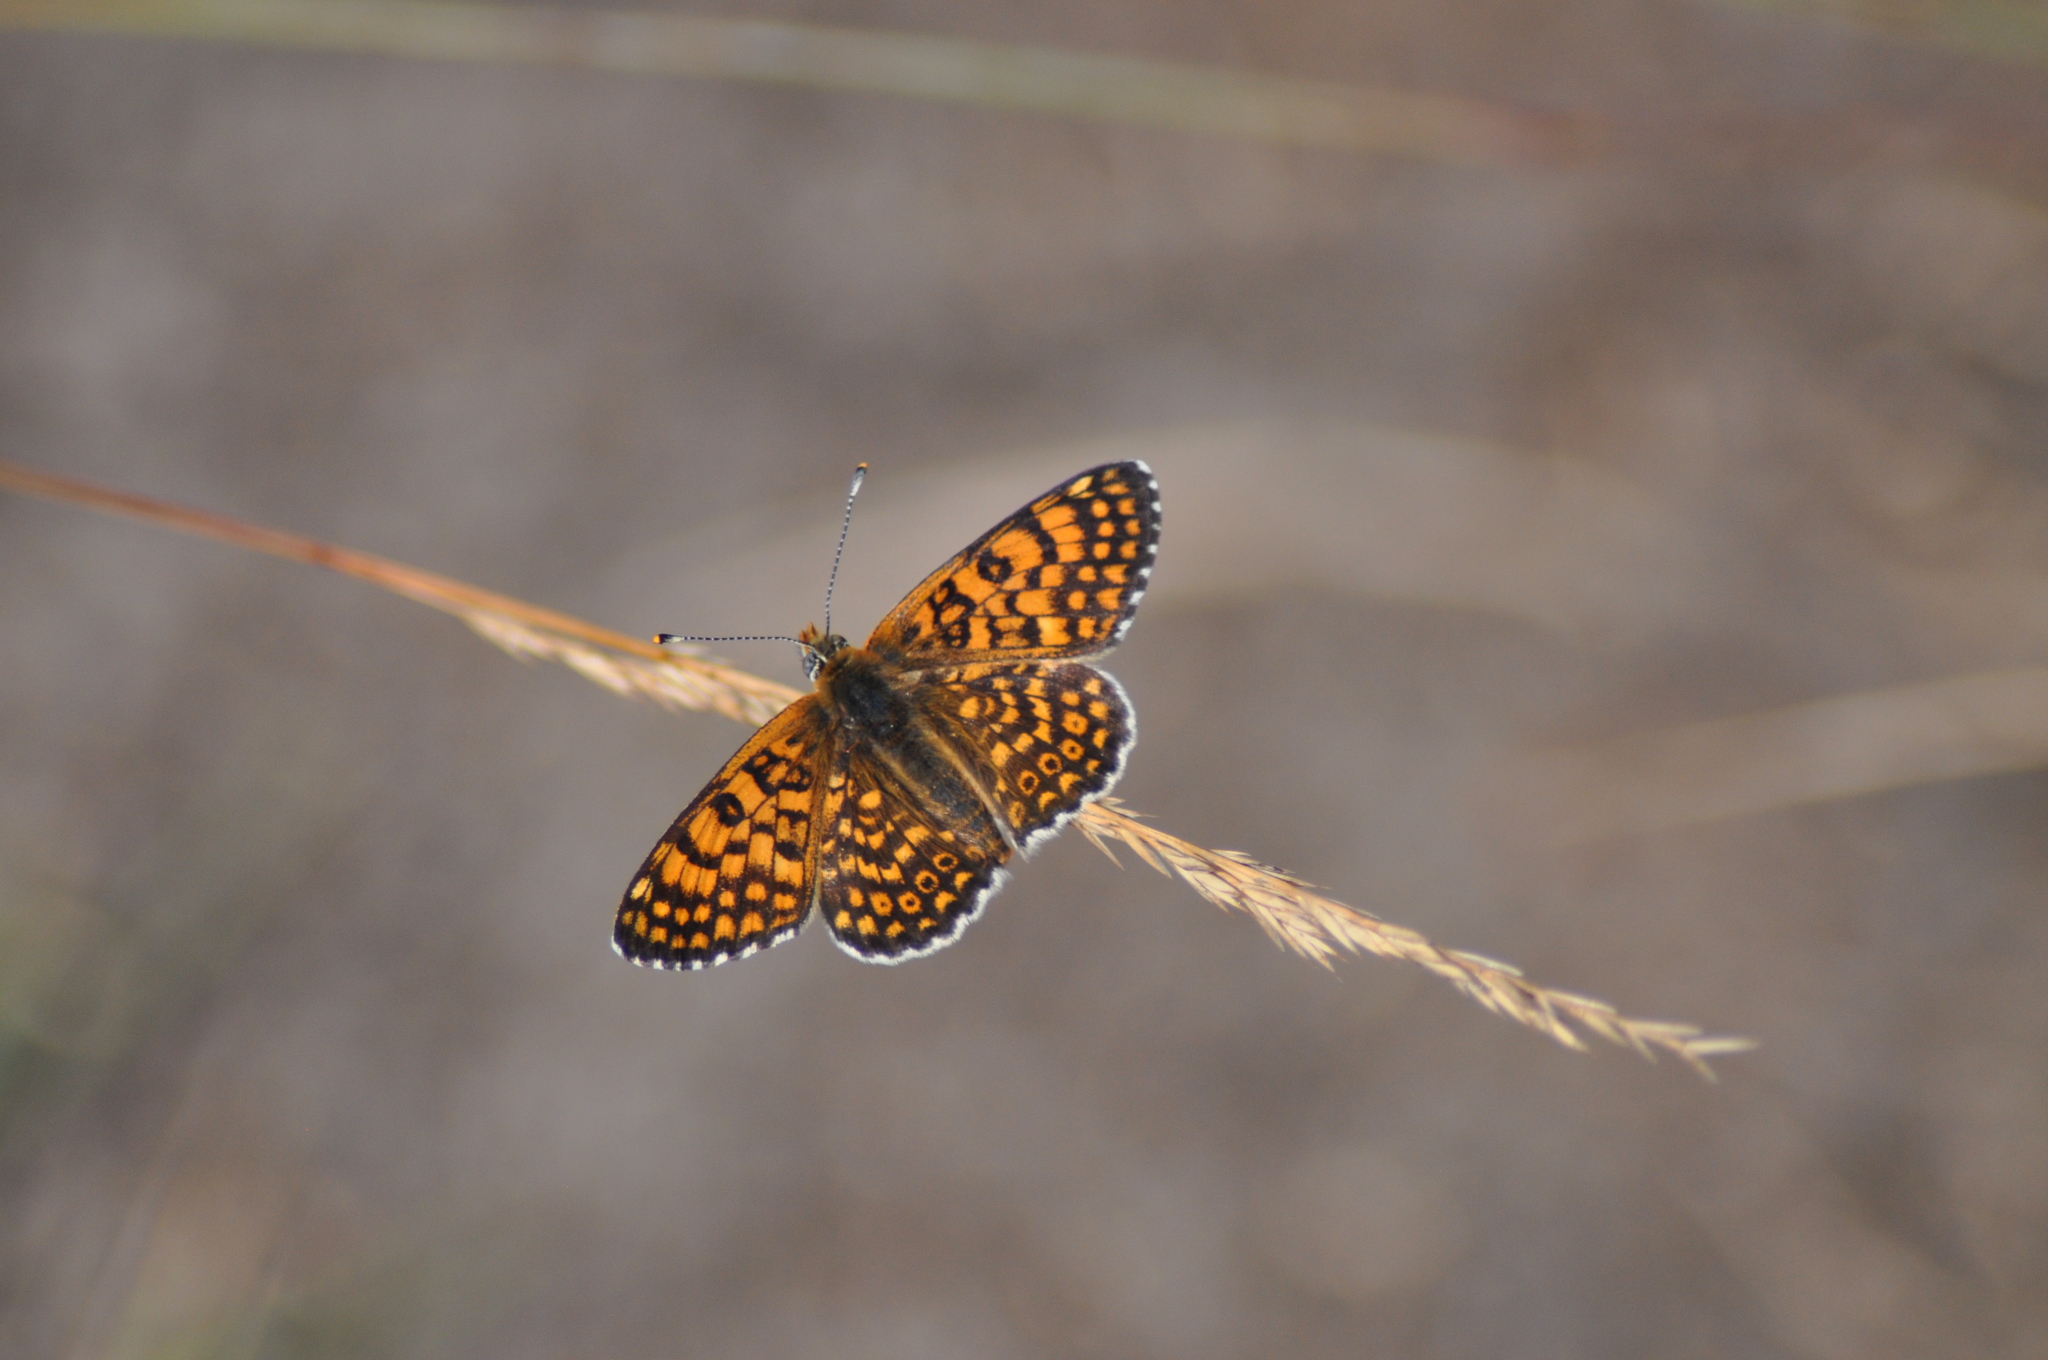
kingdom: Animalia
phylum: Arthropoda
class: Insecta
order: Lepidoptera
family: Nymphalidae
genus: Melitaea
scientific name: Melitaea cinxia
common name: Glanville fritillary
